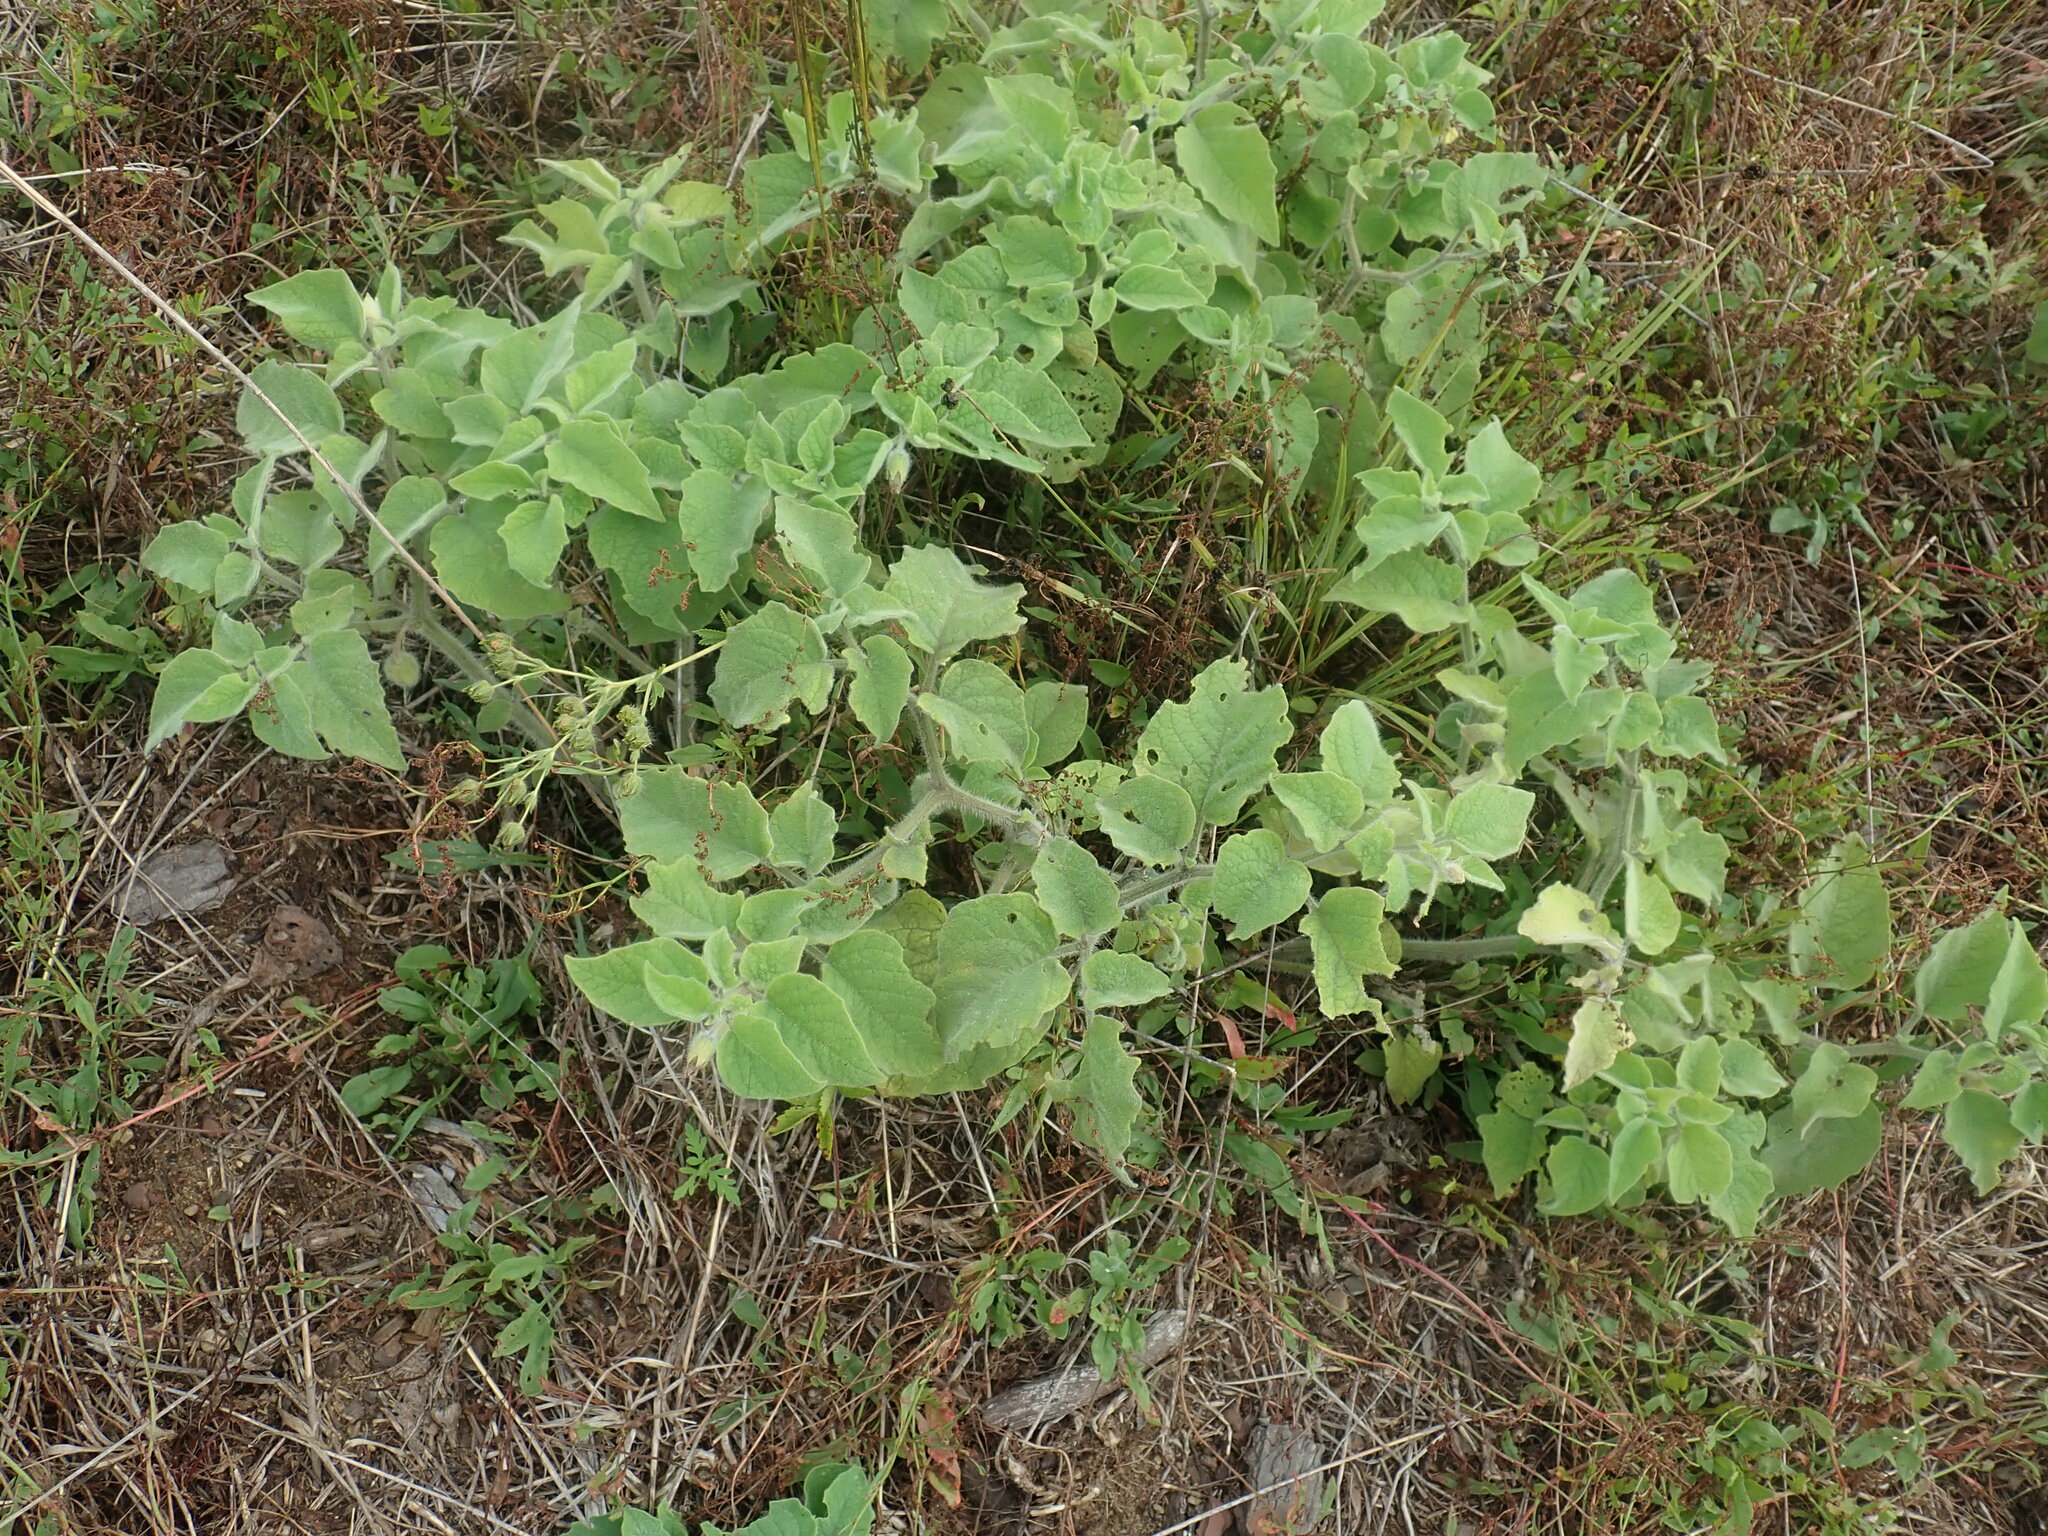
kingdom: Plantae
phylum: Tracheophyta
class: Magnoliopsida
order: Solanales
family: Solanaceae
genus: Physalis
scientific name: Physalis heterophylla
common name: Clammy ground-cherry
